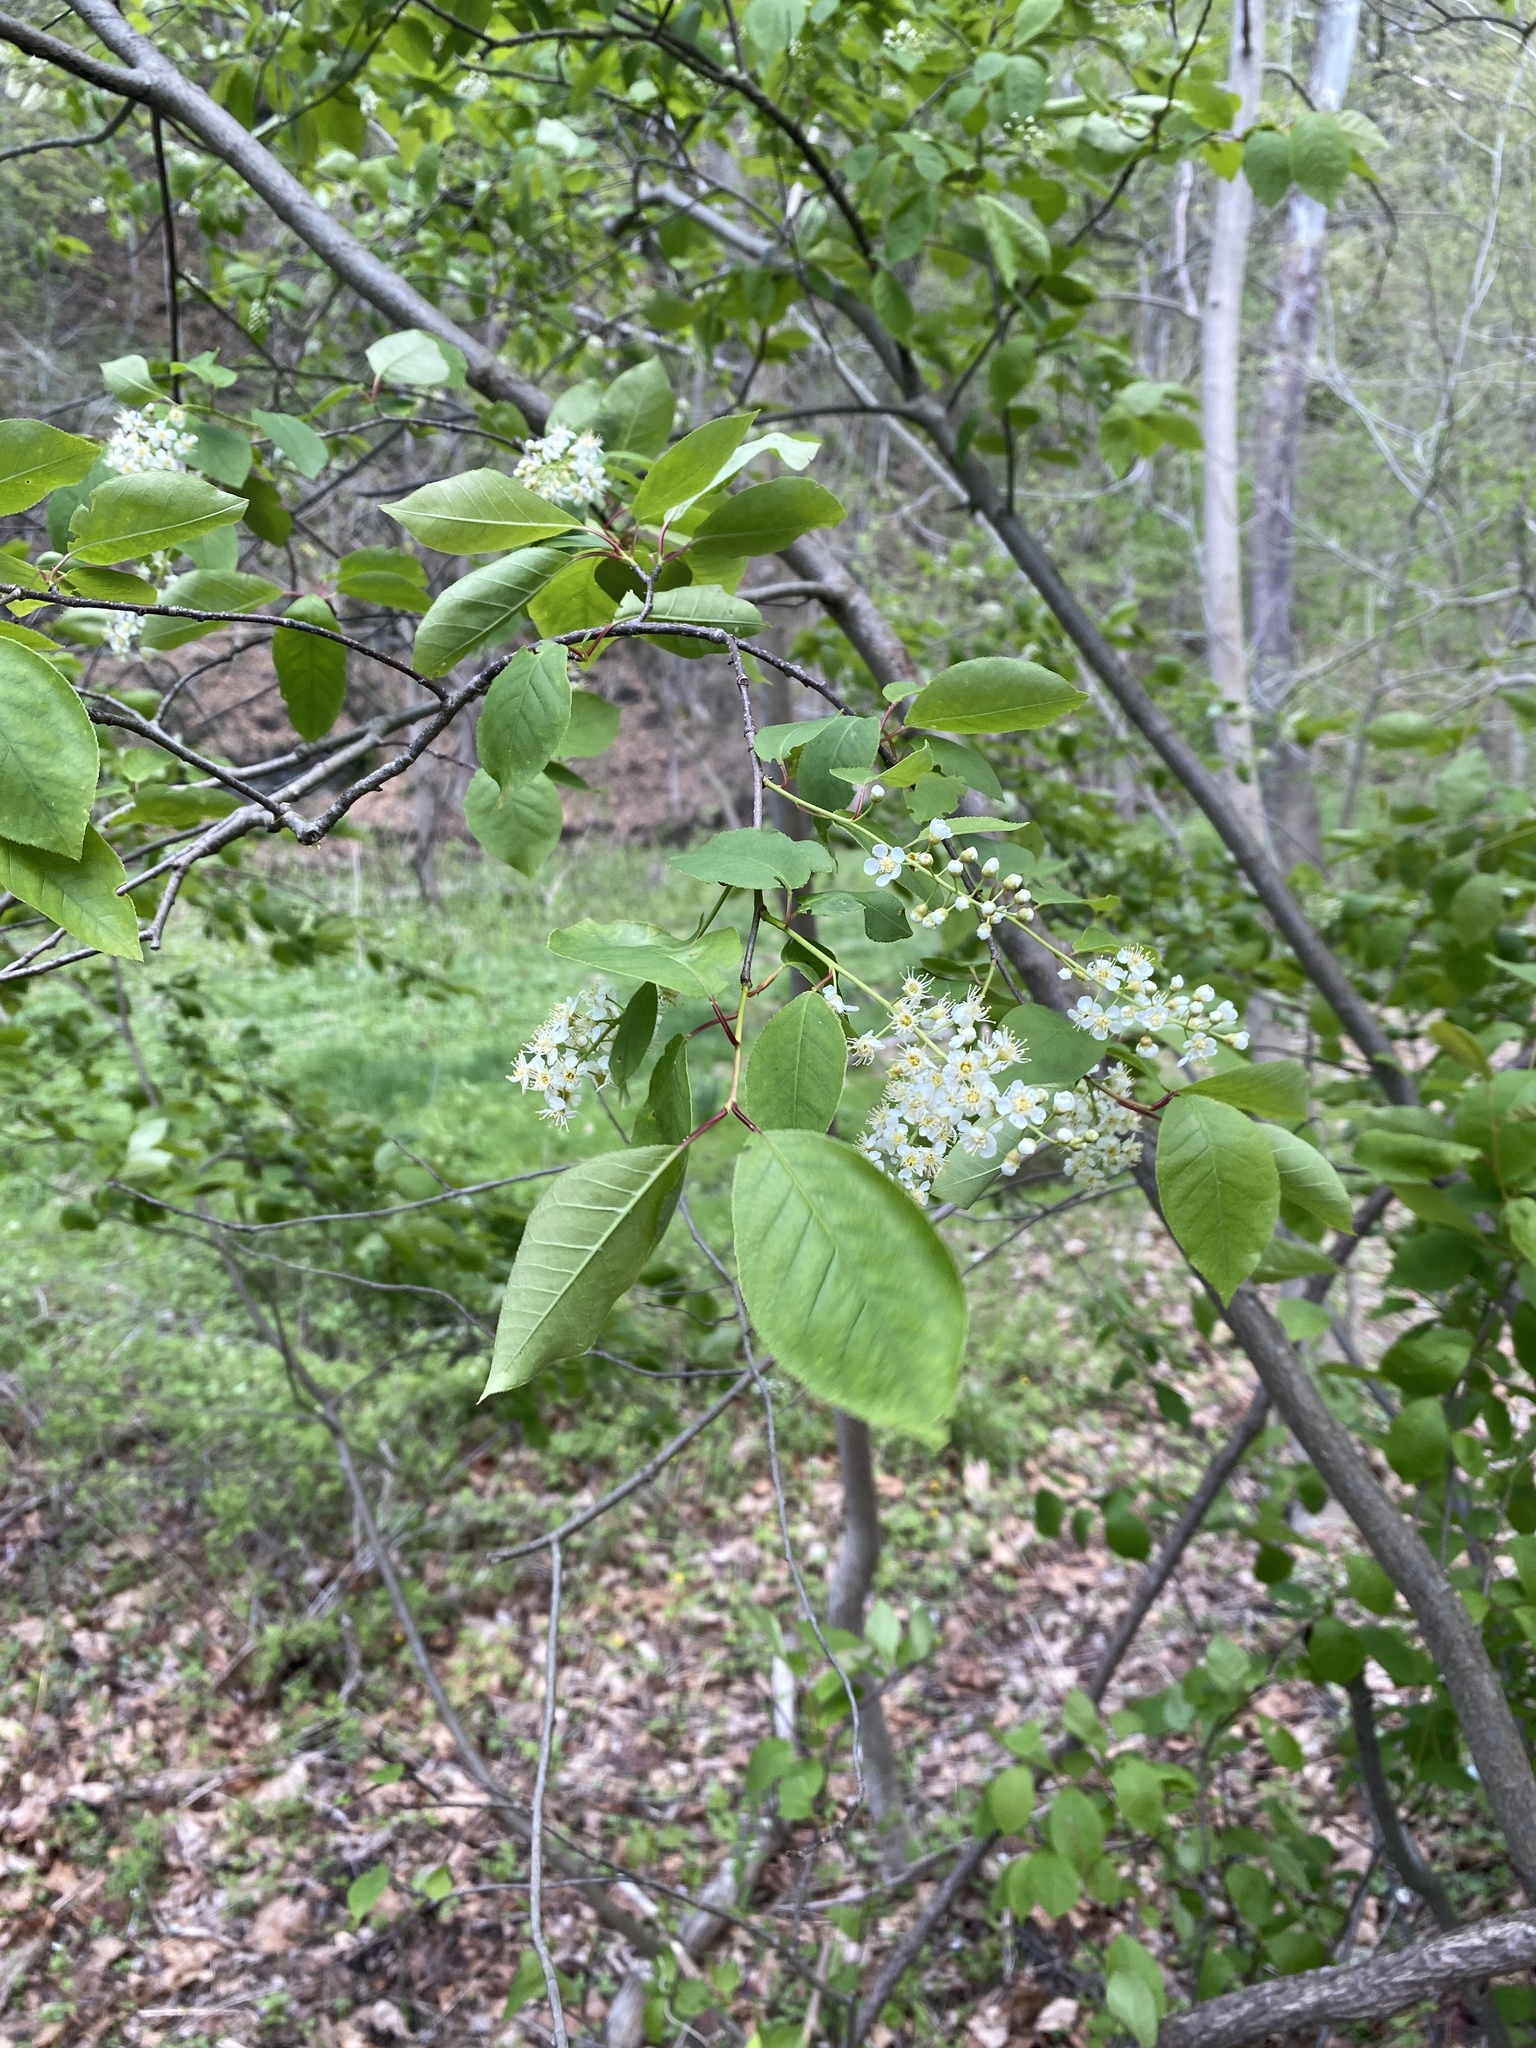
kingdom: Plantae
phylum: Tracheophyta
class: Magnoliopsida
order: Rosales
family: Rosaceae
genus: Prunus
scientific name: Prunus virginiana
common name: Chokecherry
